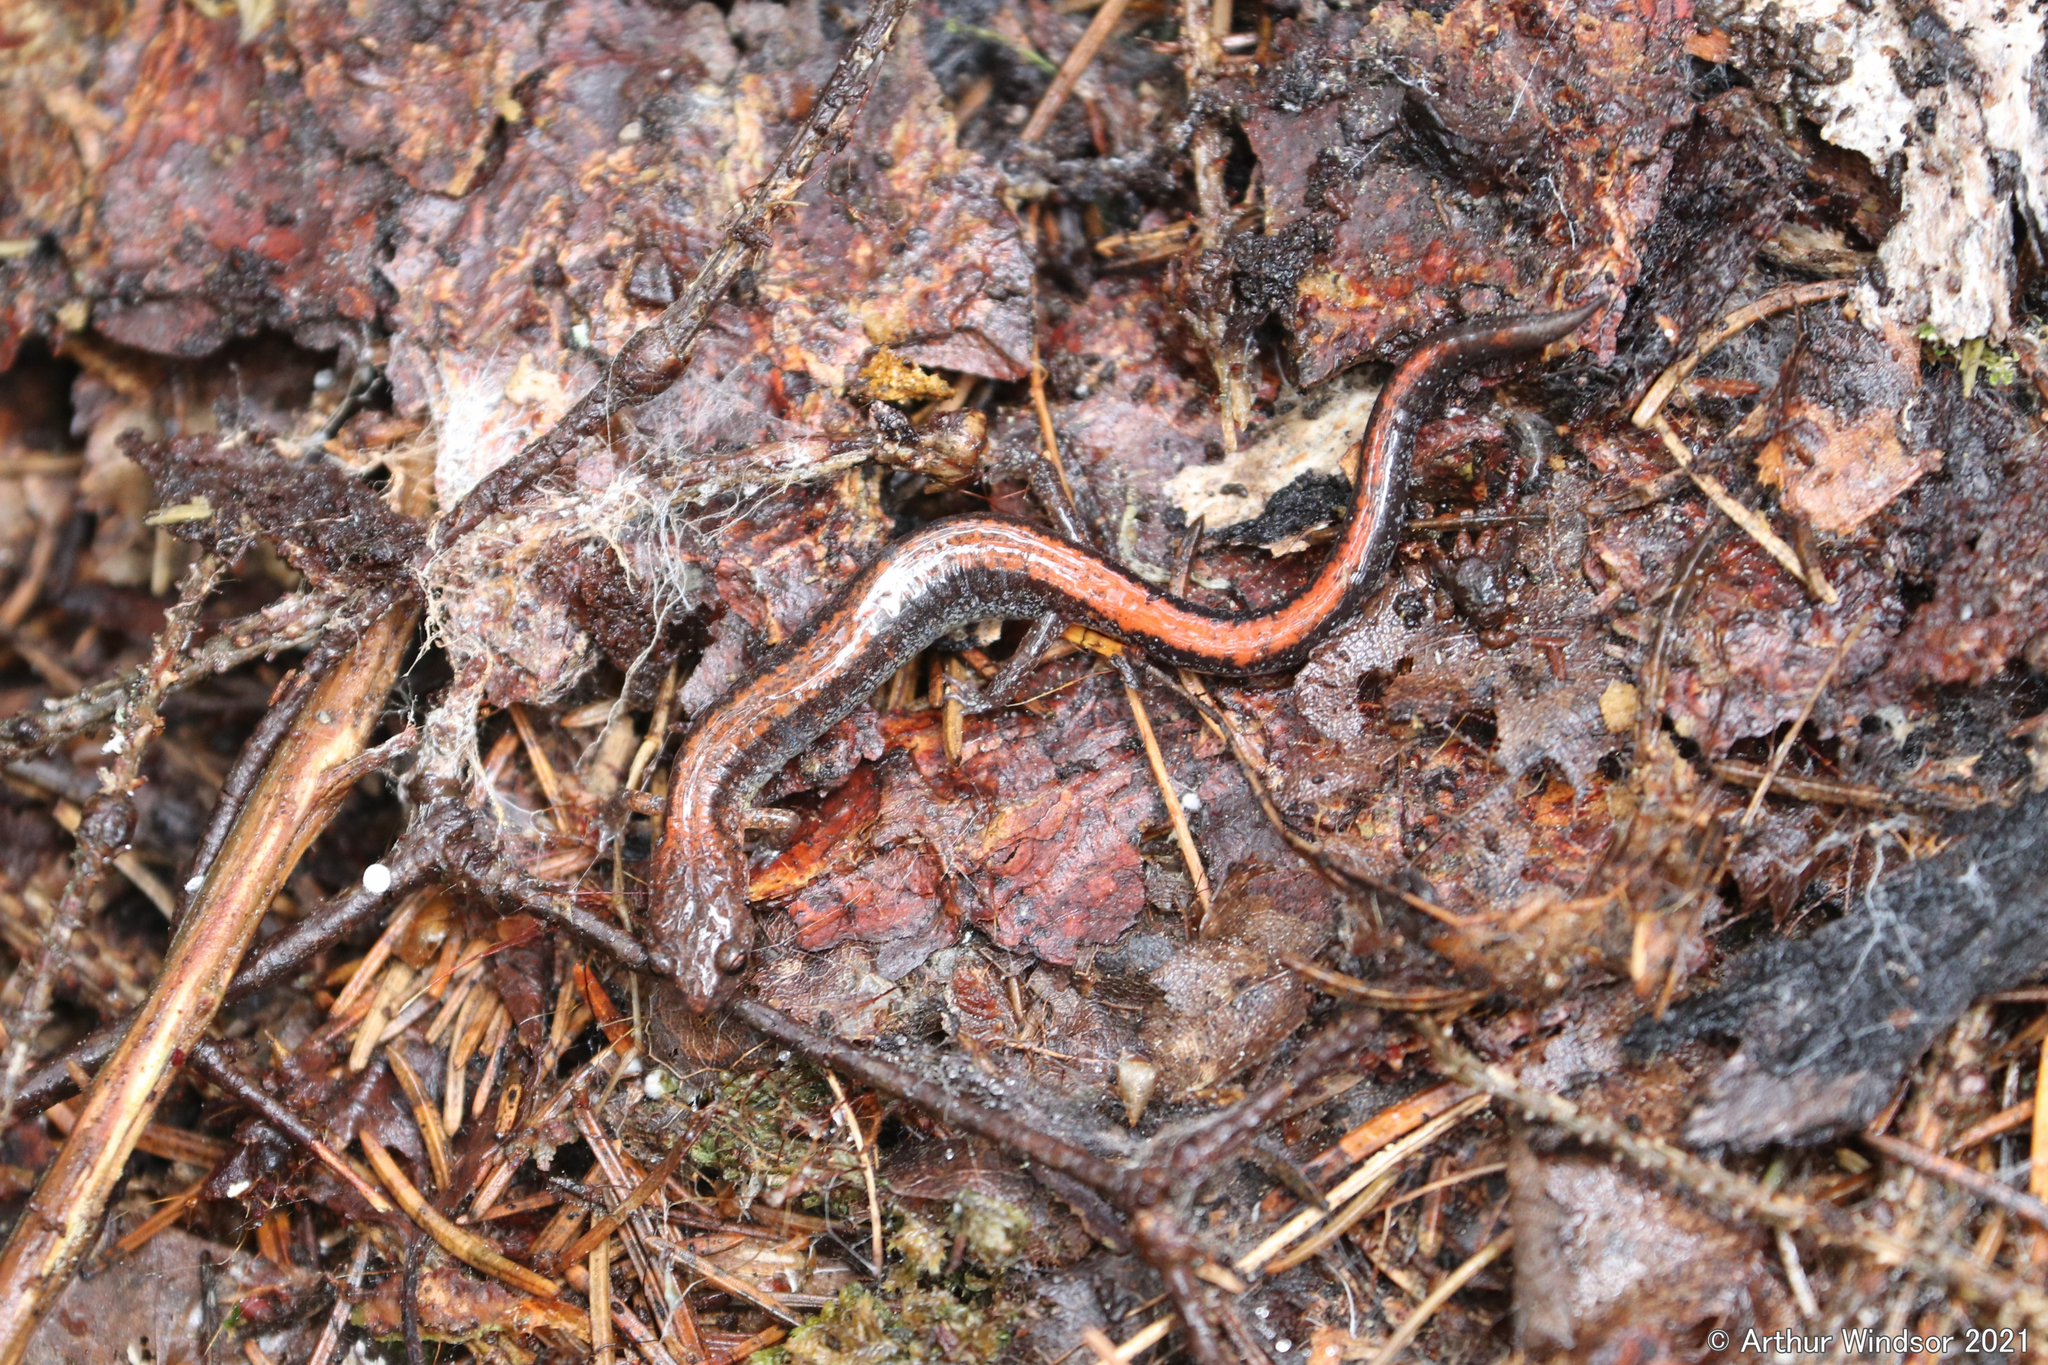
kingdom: Animalia
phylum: Chordata
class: Amphibia
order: Caudata
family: Plethodontidae
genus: Plethodon
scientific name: Plethodon cinereus
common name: Redback salamander
